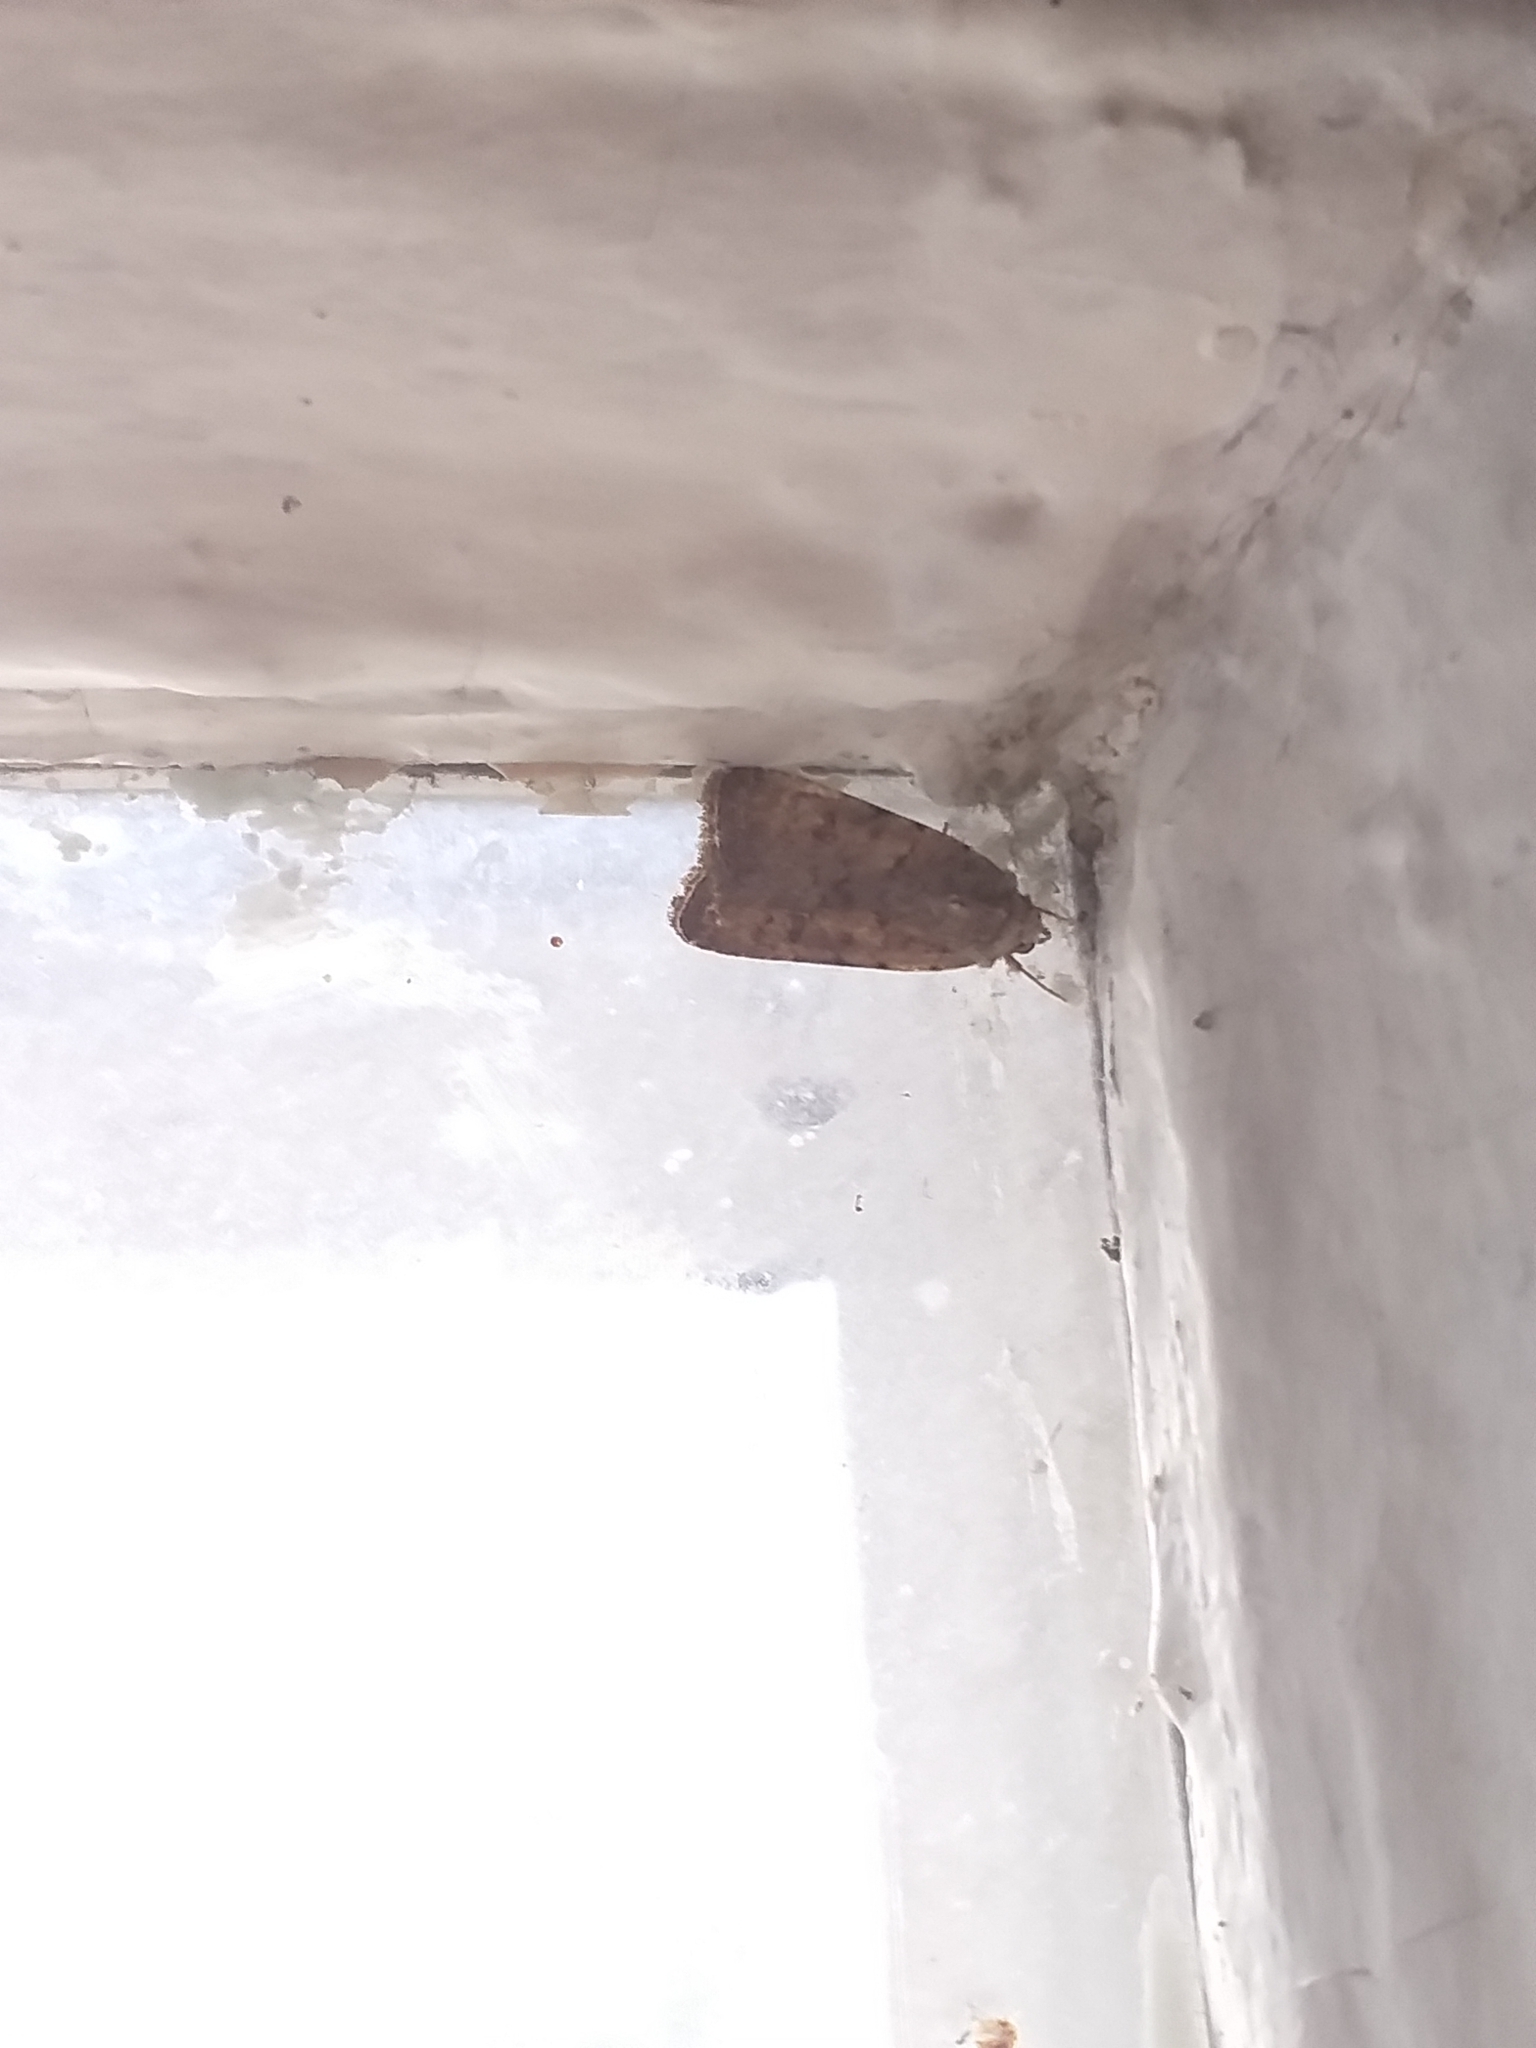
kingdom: Animalia
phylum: Arthropoda
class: Insecta
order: Lepidoptera
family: Noctuidae
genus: Caradrina
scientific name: Caradrina clavipalpis
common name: Pale mottled willow
